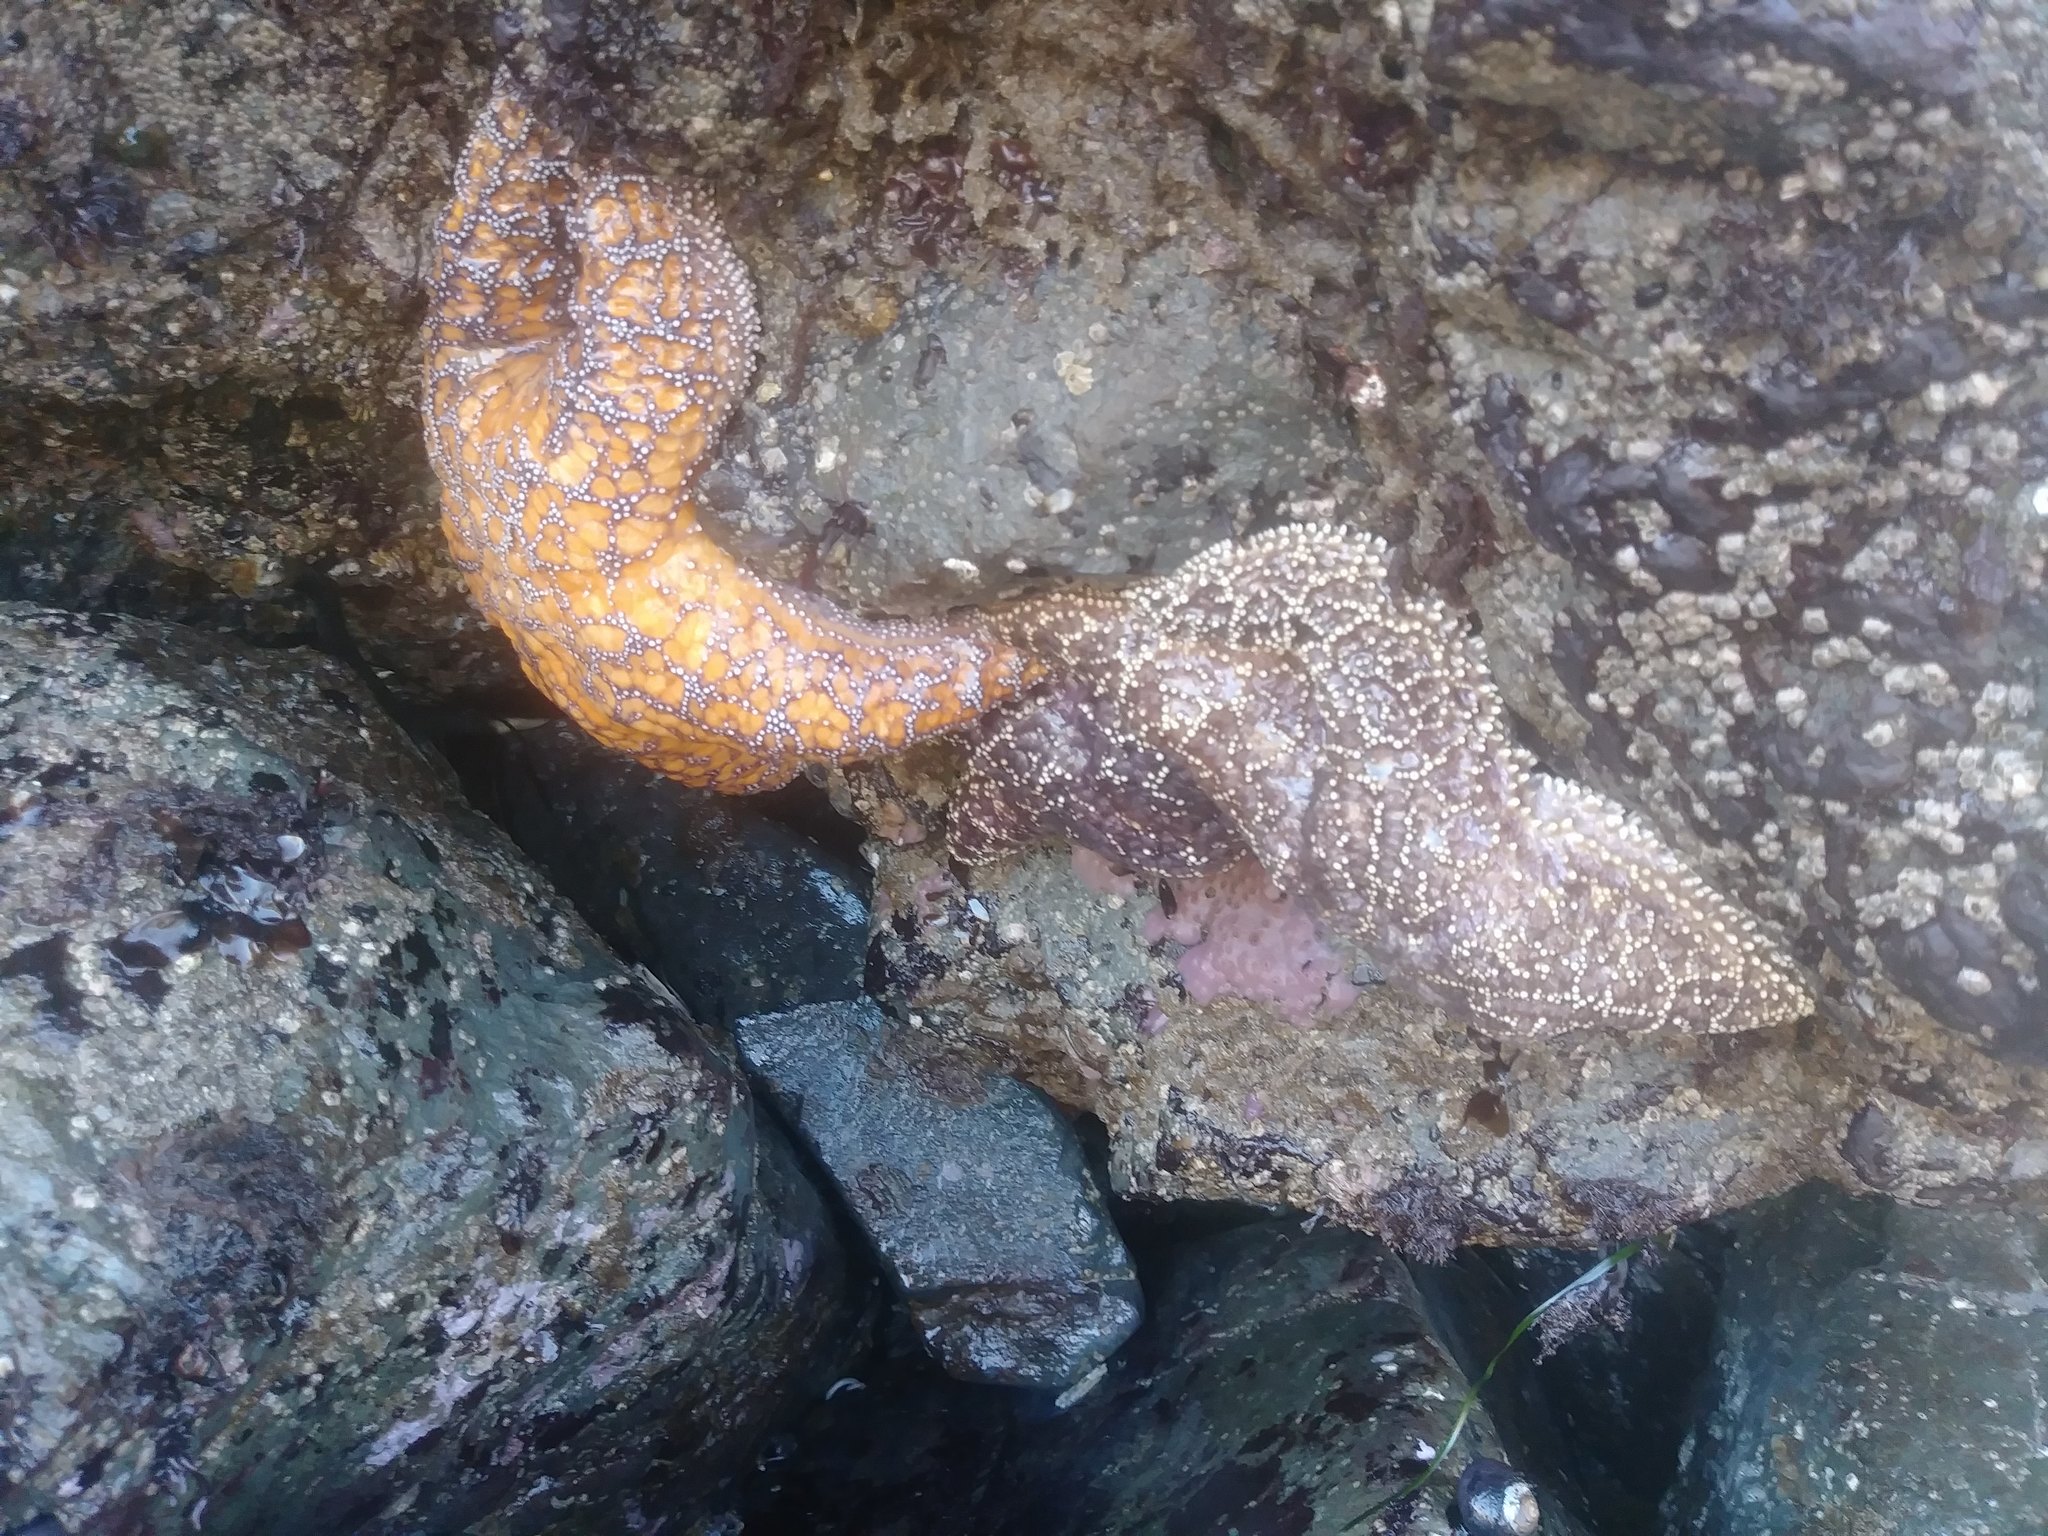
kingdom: Animalia
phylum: Echinodermata
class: Asteroidea
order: Forcipulatida
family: Asteriidae
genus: Pisaster
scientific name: Pisaster ochraceus
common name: Ochre stars
